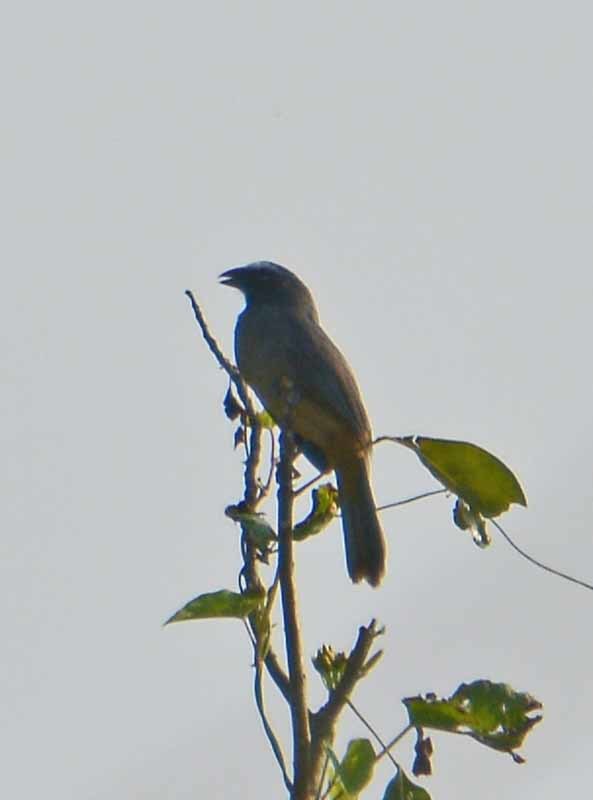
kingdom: Animalia
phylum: Chordata
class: Aves
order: Passeriformes
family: Thraupidae
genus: Saltator
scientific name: Saltator grandis
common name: Cinnamon-bellied saltator
